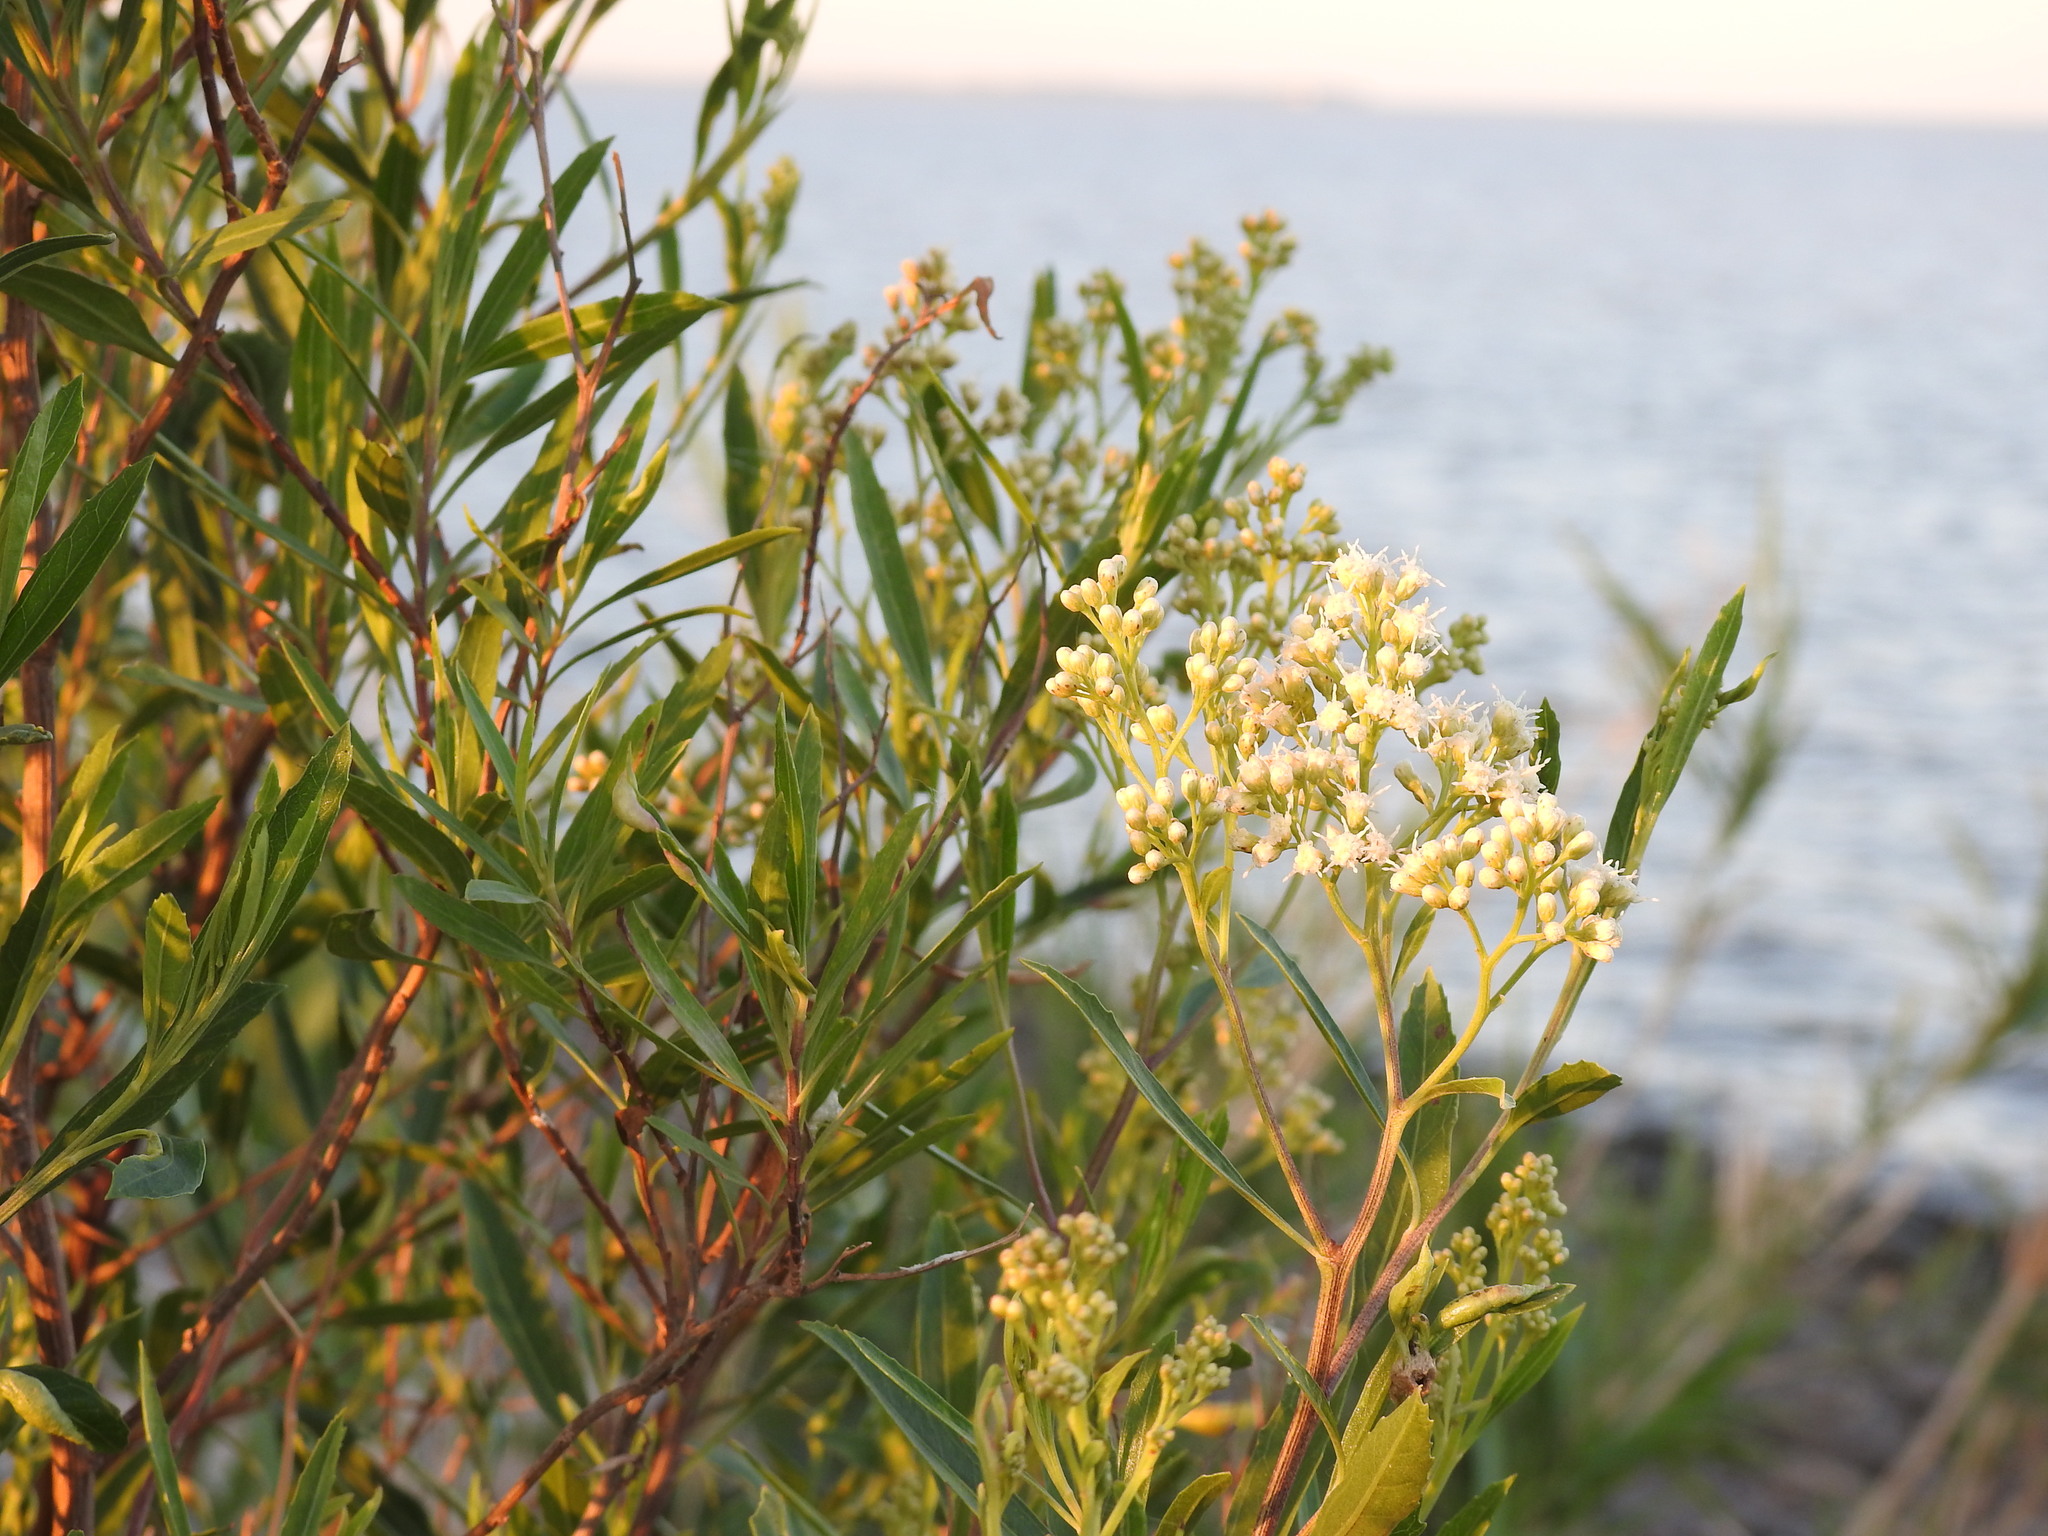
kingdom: Plantae
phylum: Tracheophyta
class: Magnoliopsida
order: Asterales
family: Asteraceae
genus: Baccharis
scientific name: Baccharis salicifolia
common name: Sticky baccharis
